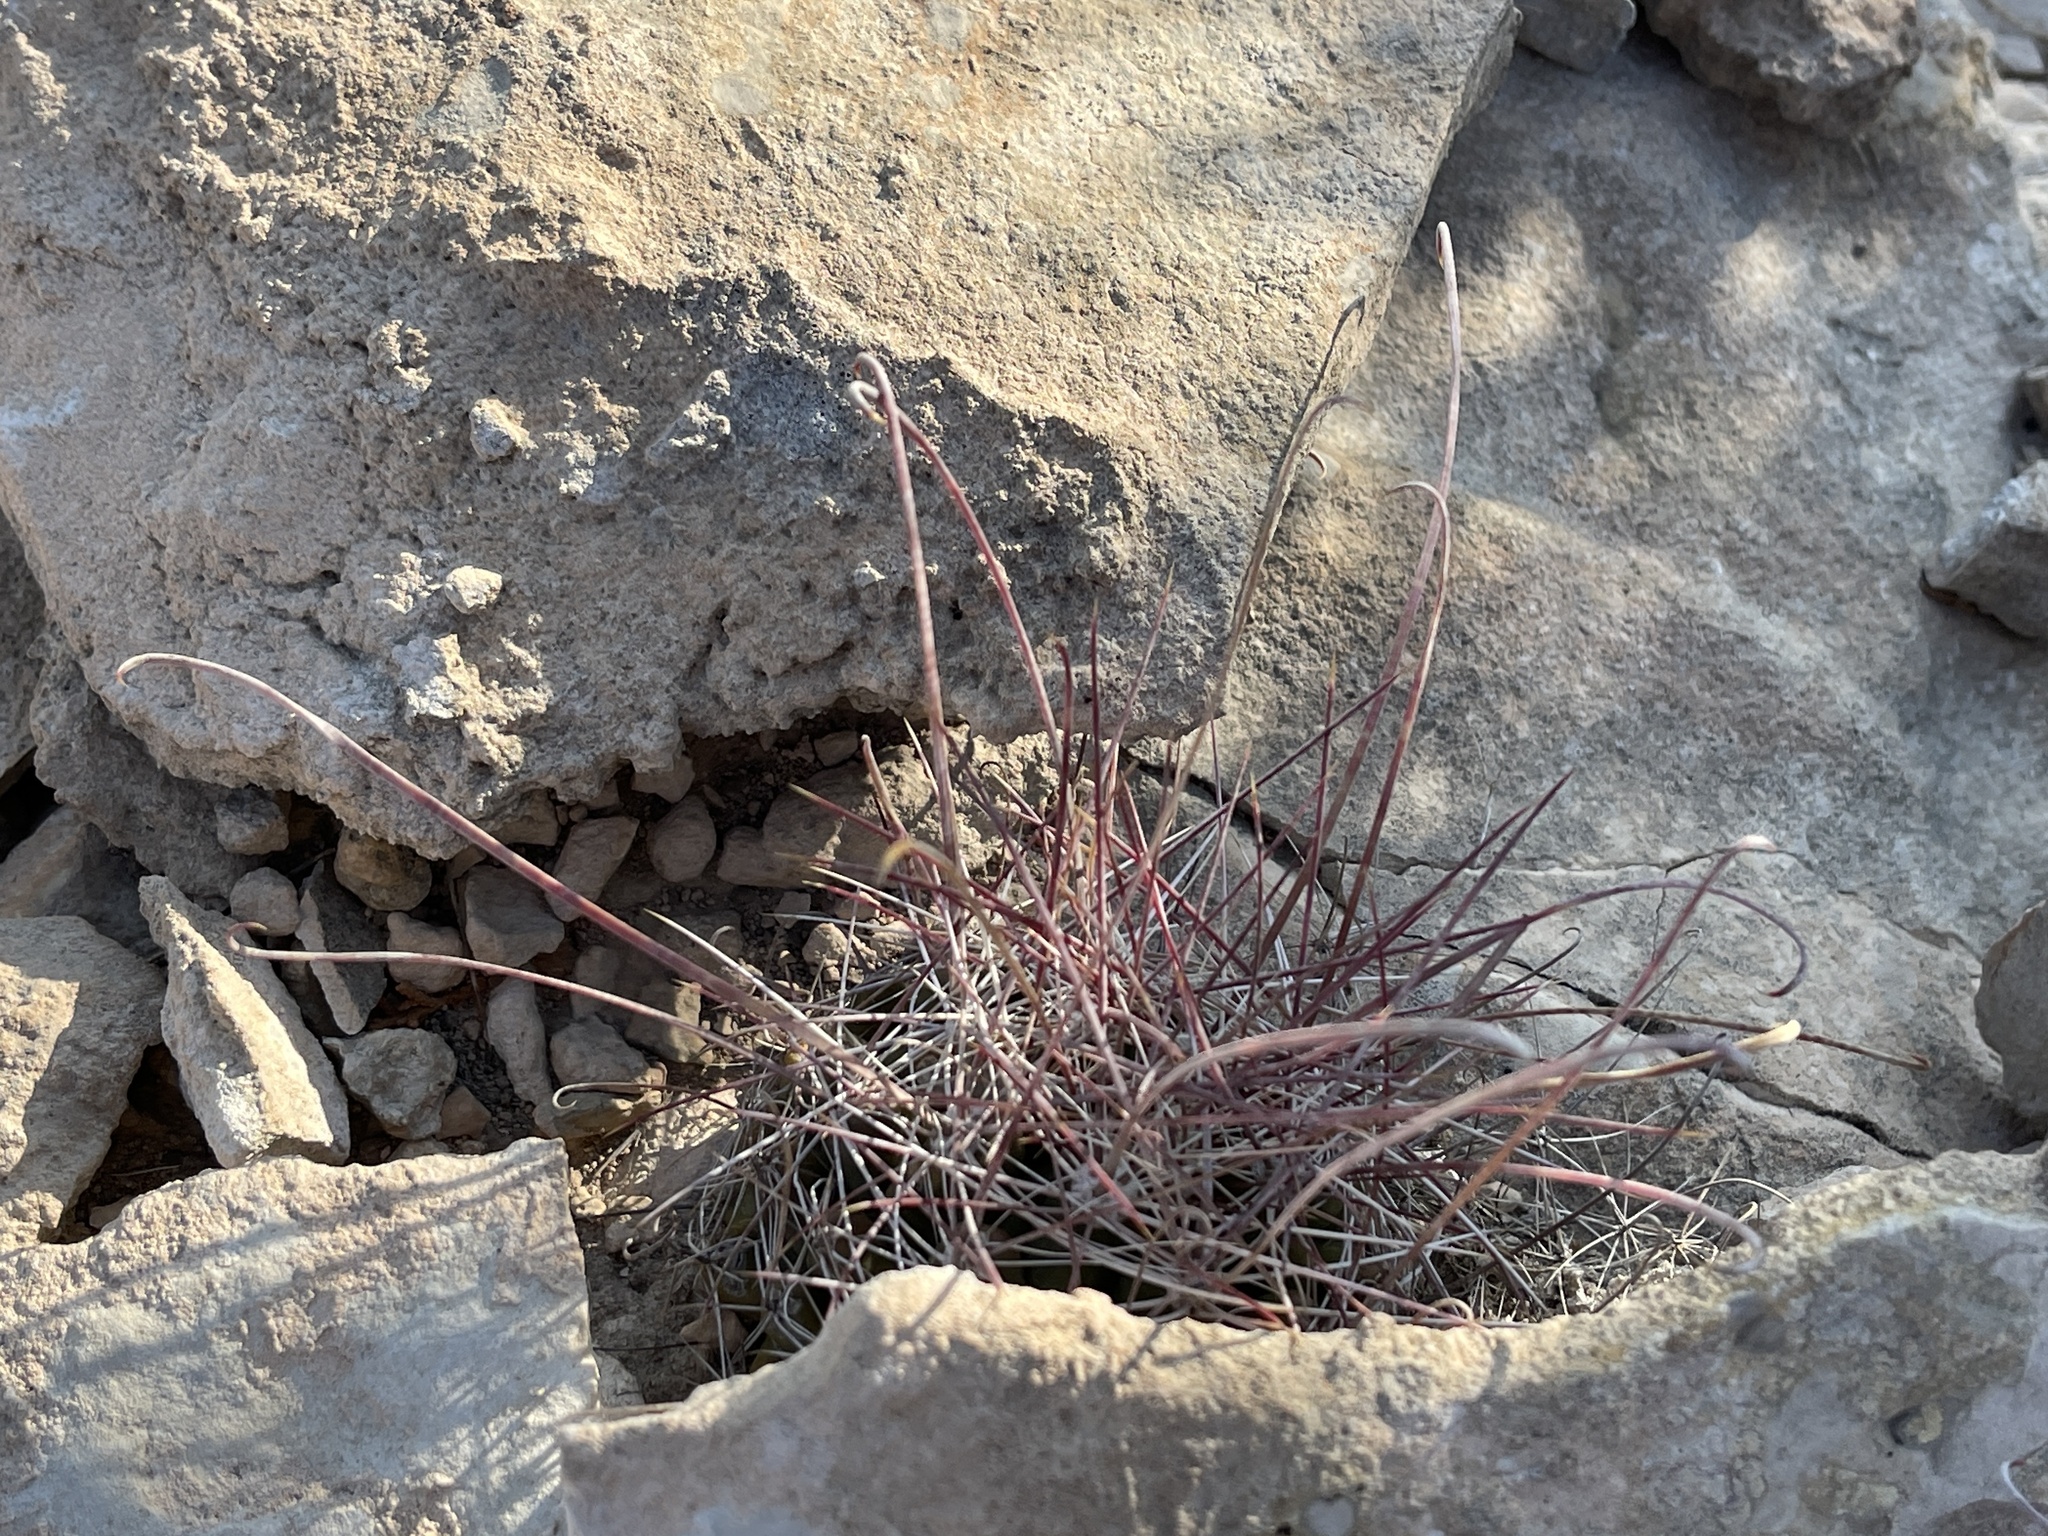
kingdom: Plantae
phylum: Tracheophyta
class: Magnoliopsida
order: Caryophyllales
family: Cactaceae
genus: Bisnaga
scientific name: Bisnaga hamatacantha
